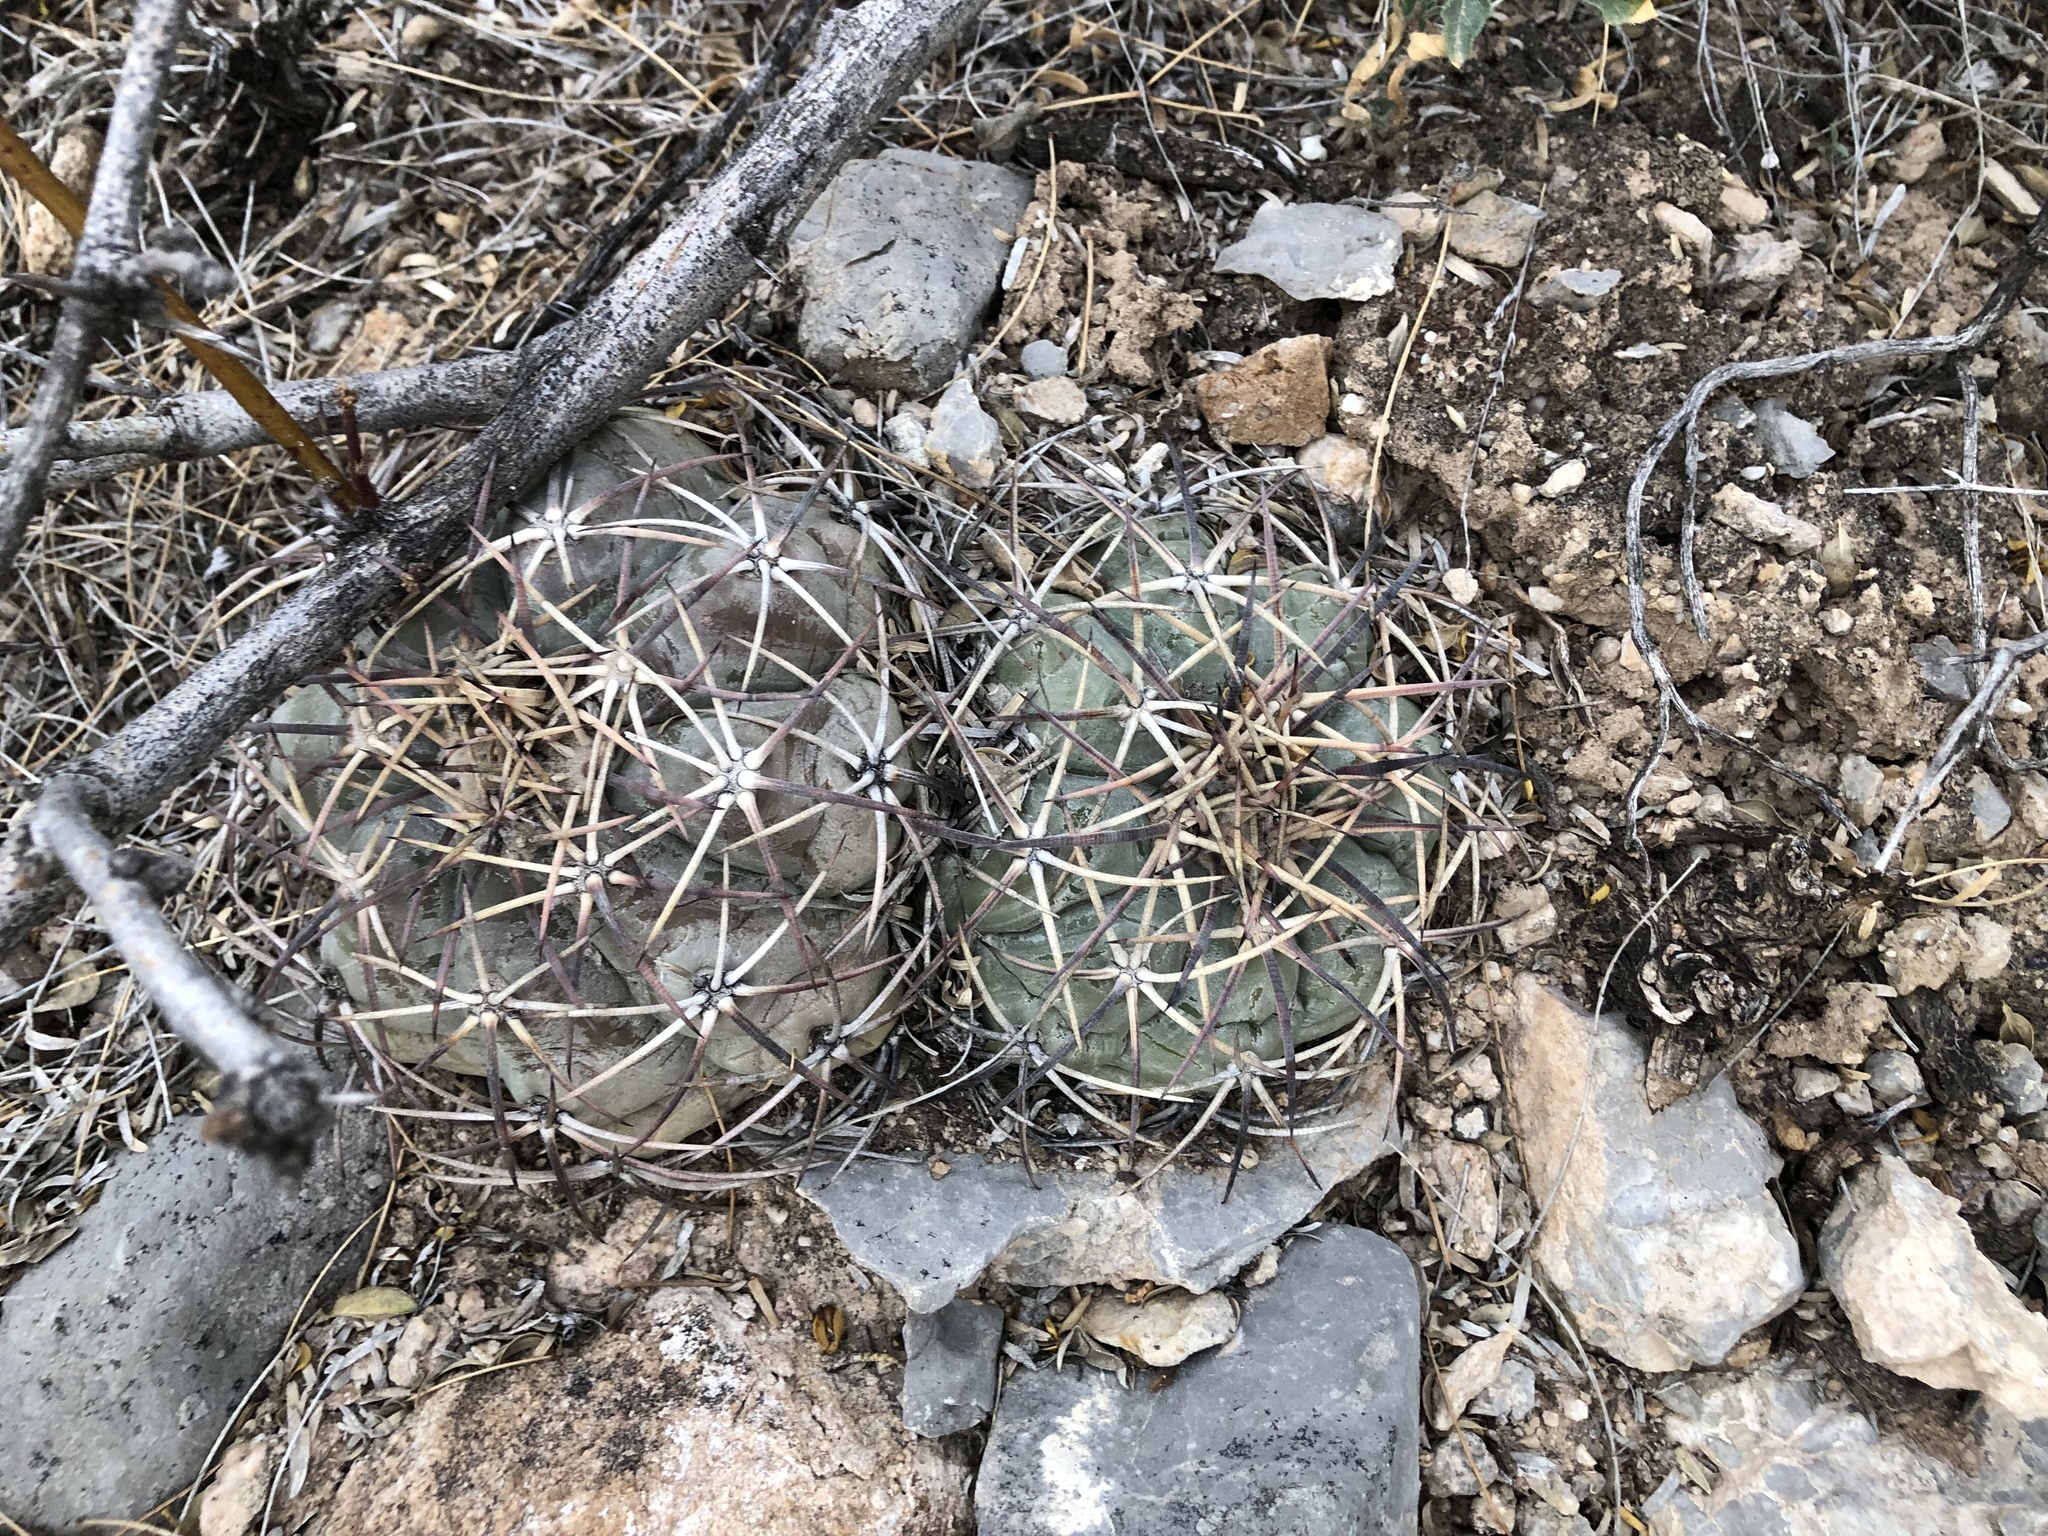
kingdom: Plantae
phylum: Tracheophyta
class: Magnoliopsida
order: Caryophyllales
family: Cactaceae
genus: Echinocactus
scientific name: Echinocactus horizonthalonius
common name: Devilshead
